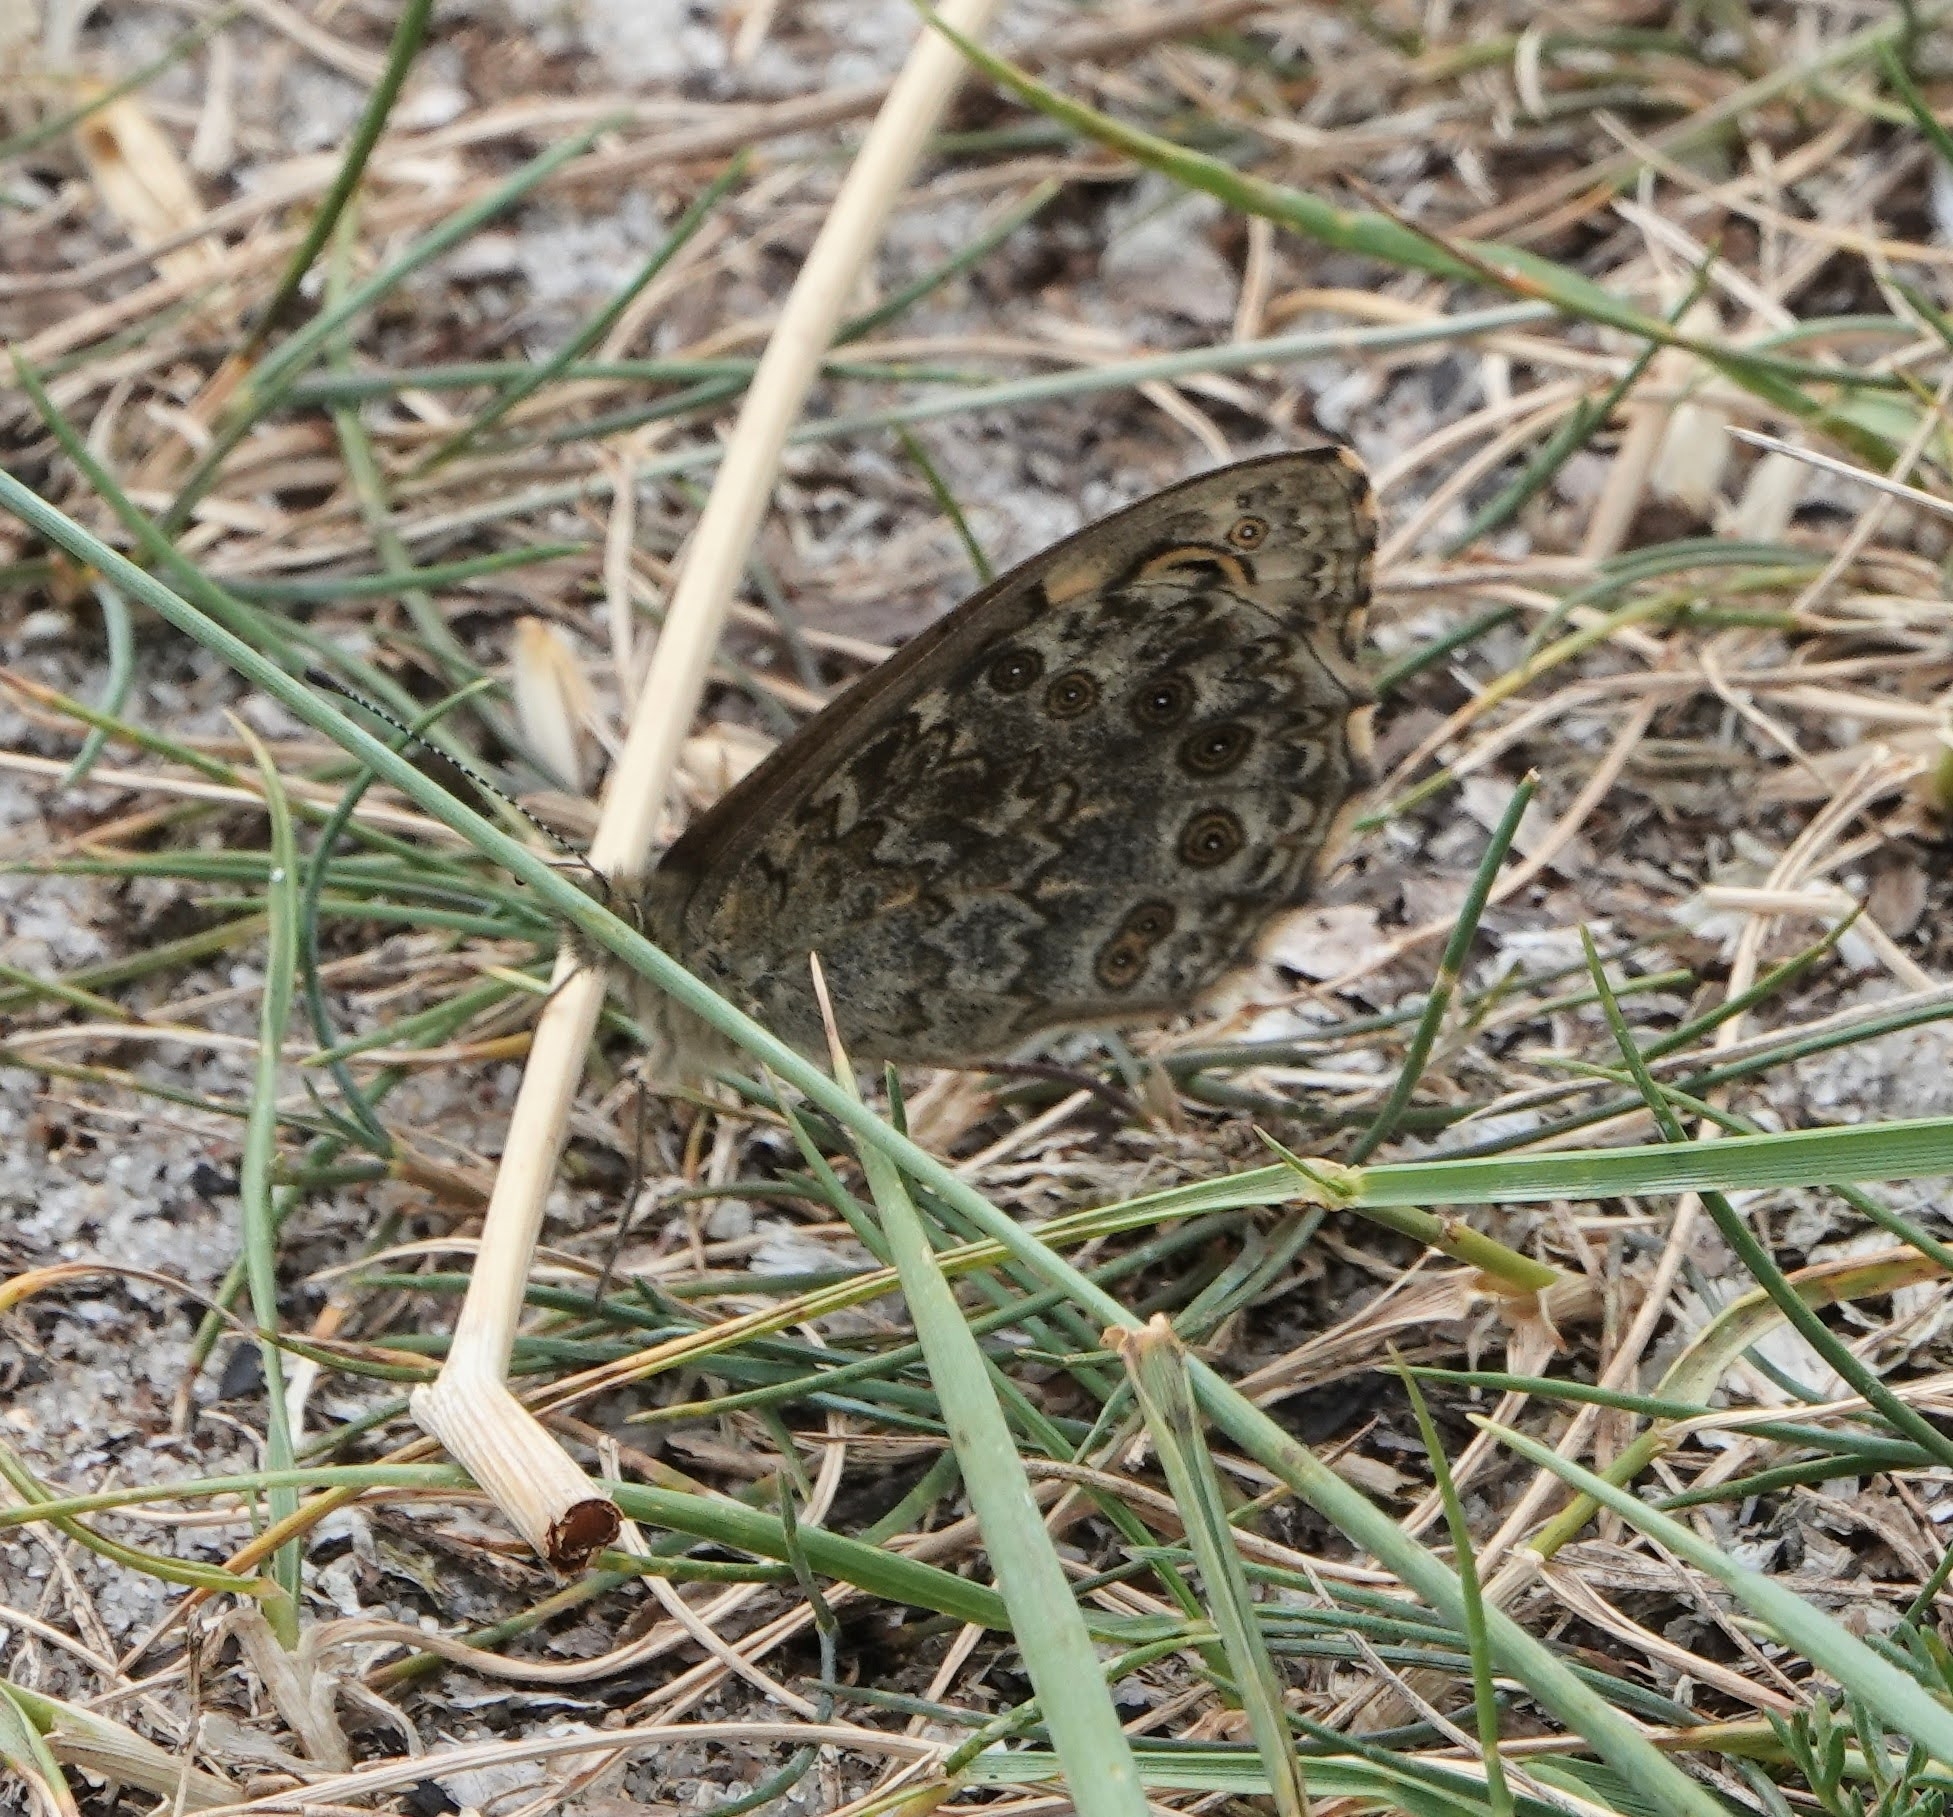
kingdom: Animalia
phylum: Arthropoda
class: Insecta
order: Lepidoptera
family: Nymphalidae
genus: Pararge
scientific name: Pararge Lasiommata megera
